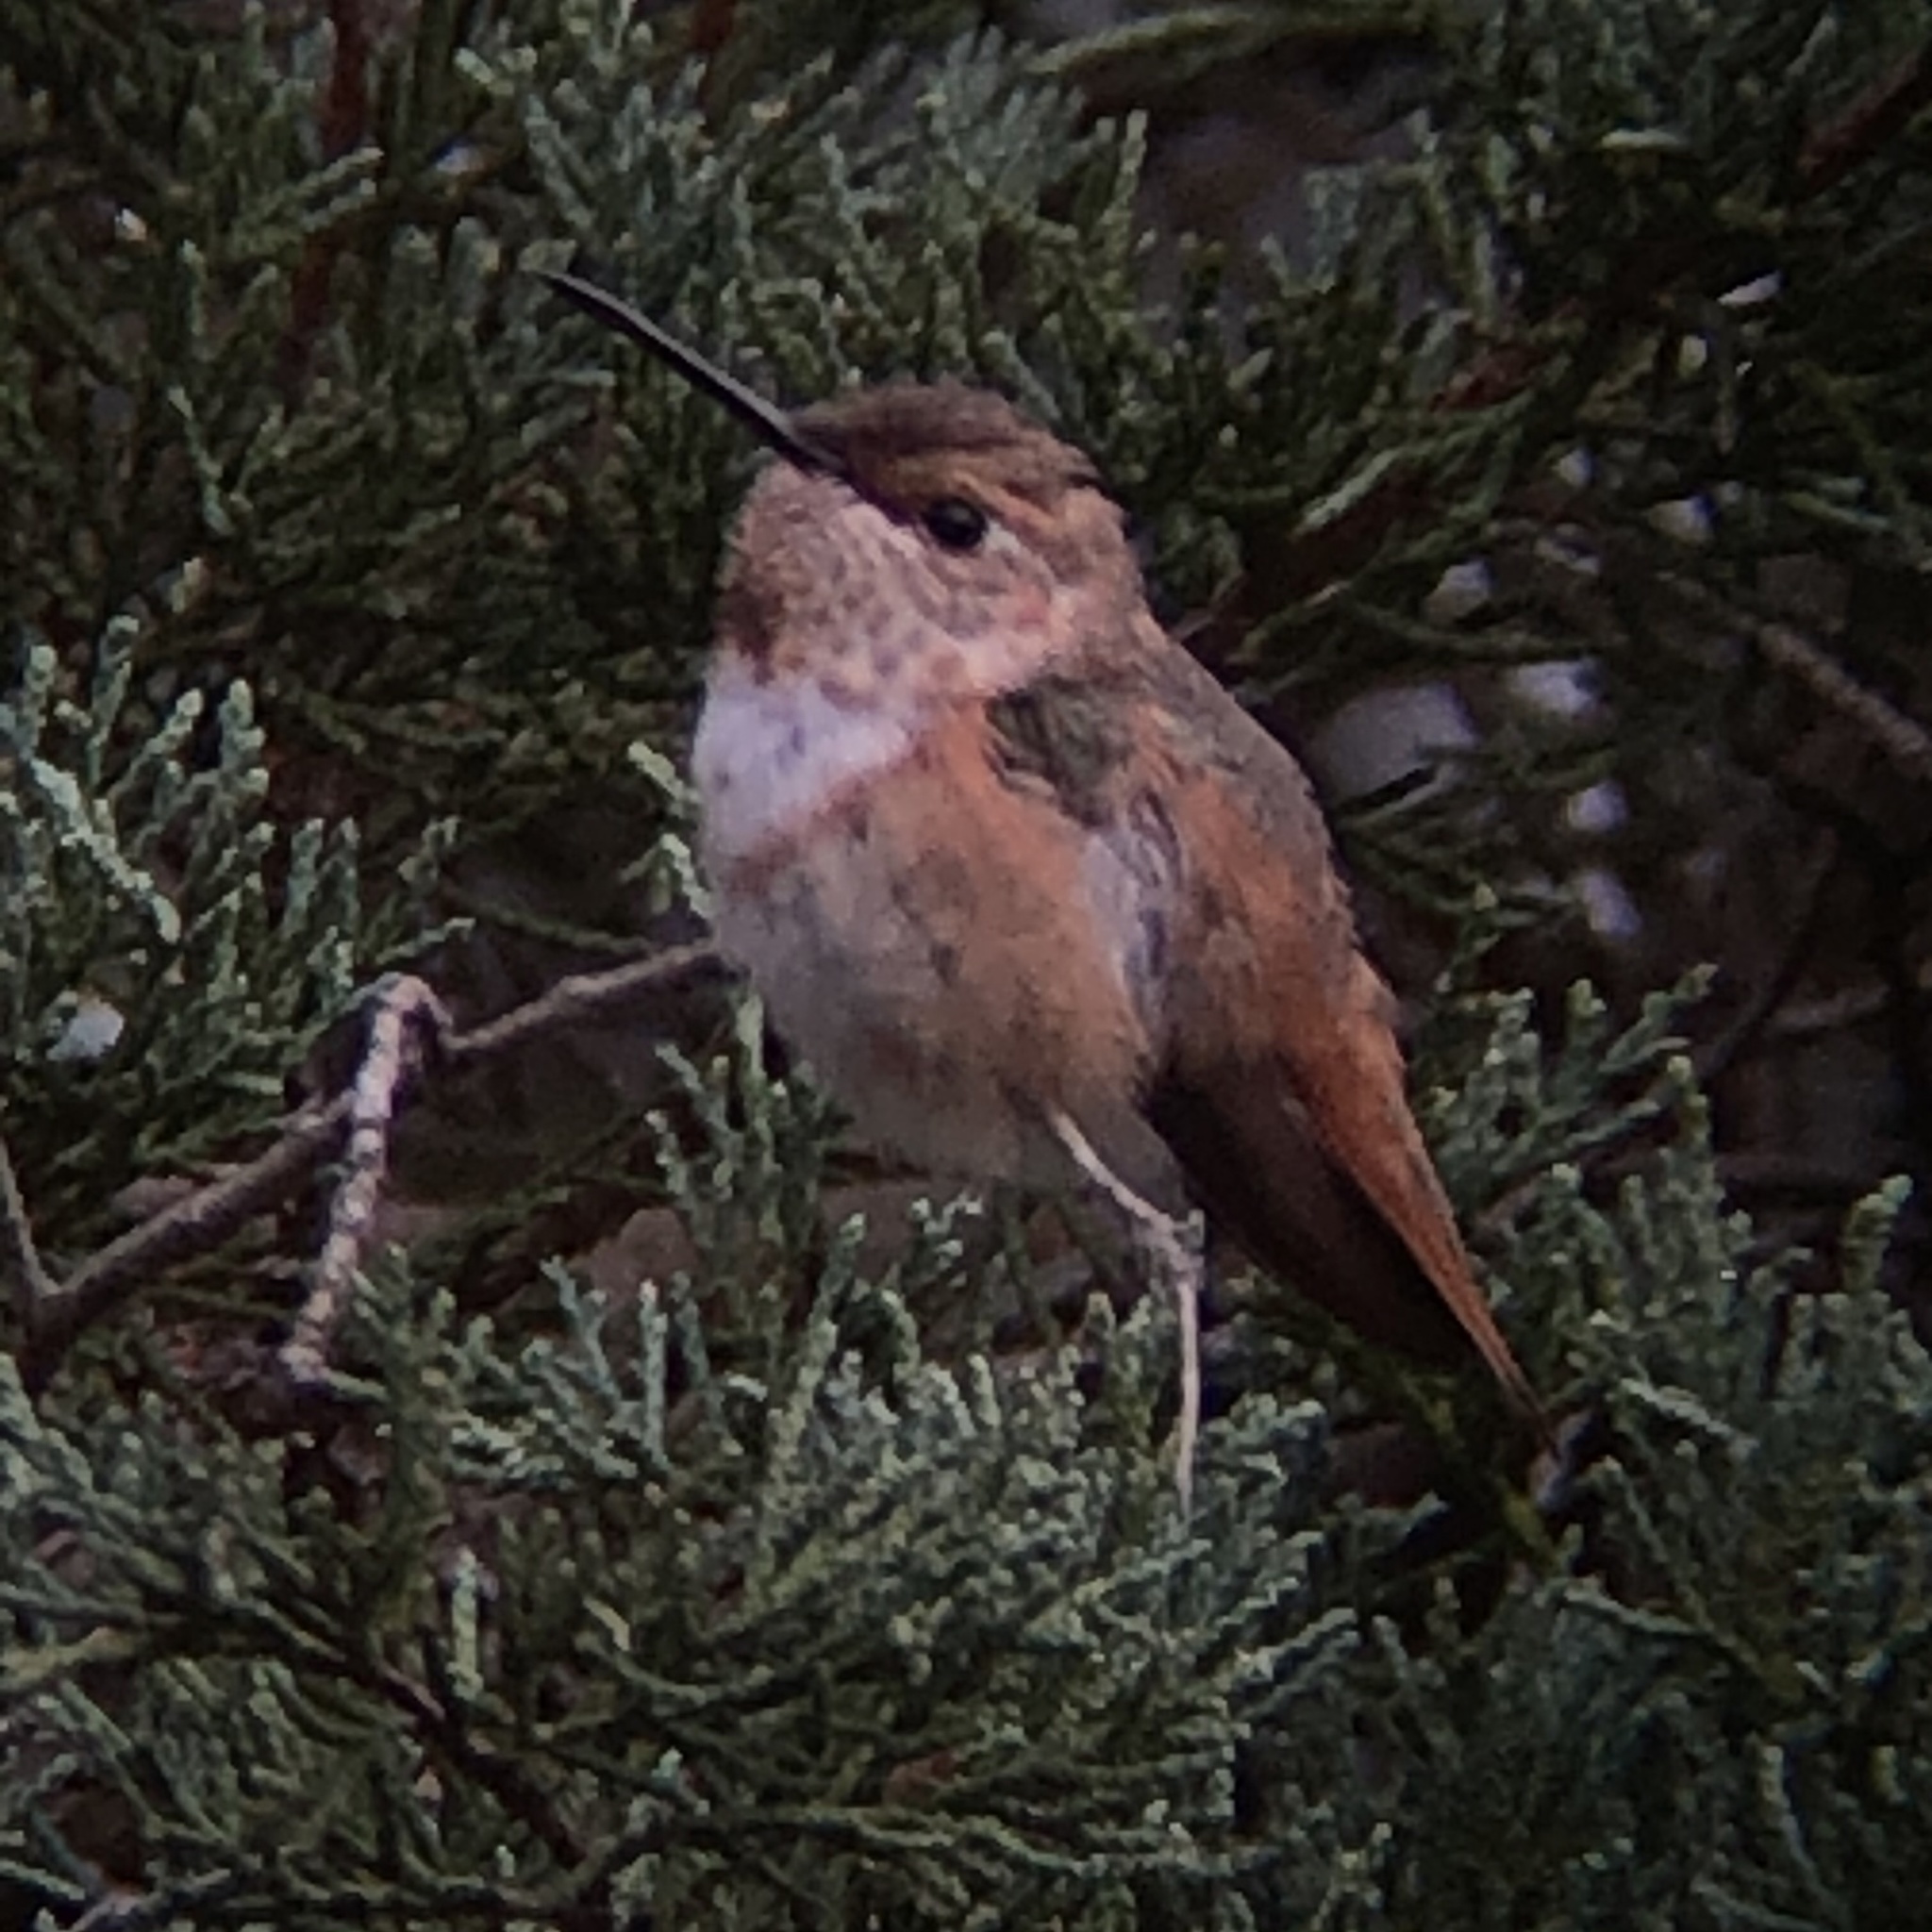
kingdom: Animalia
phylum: Chordata
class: Aves
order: Apodiformes
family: Trochilidae
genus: Selasphorus
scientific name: Selasphorus rufus
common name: Rufous hummingbird
